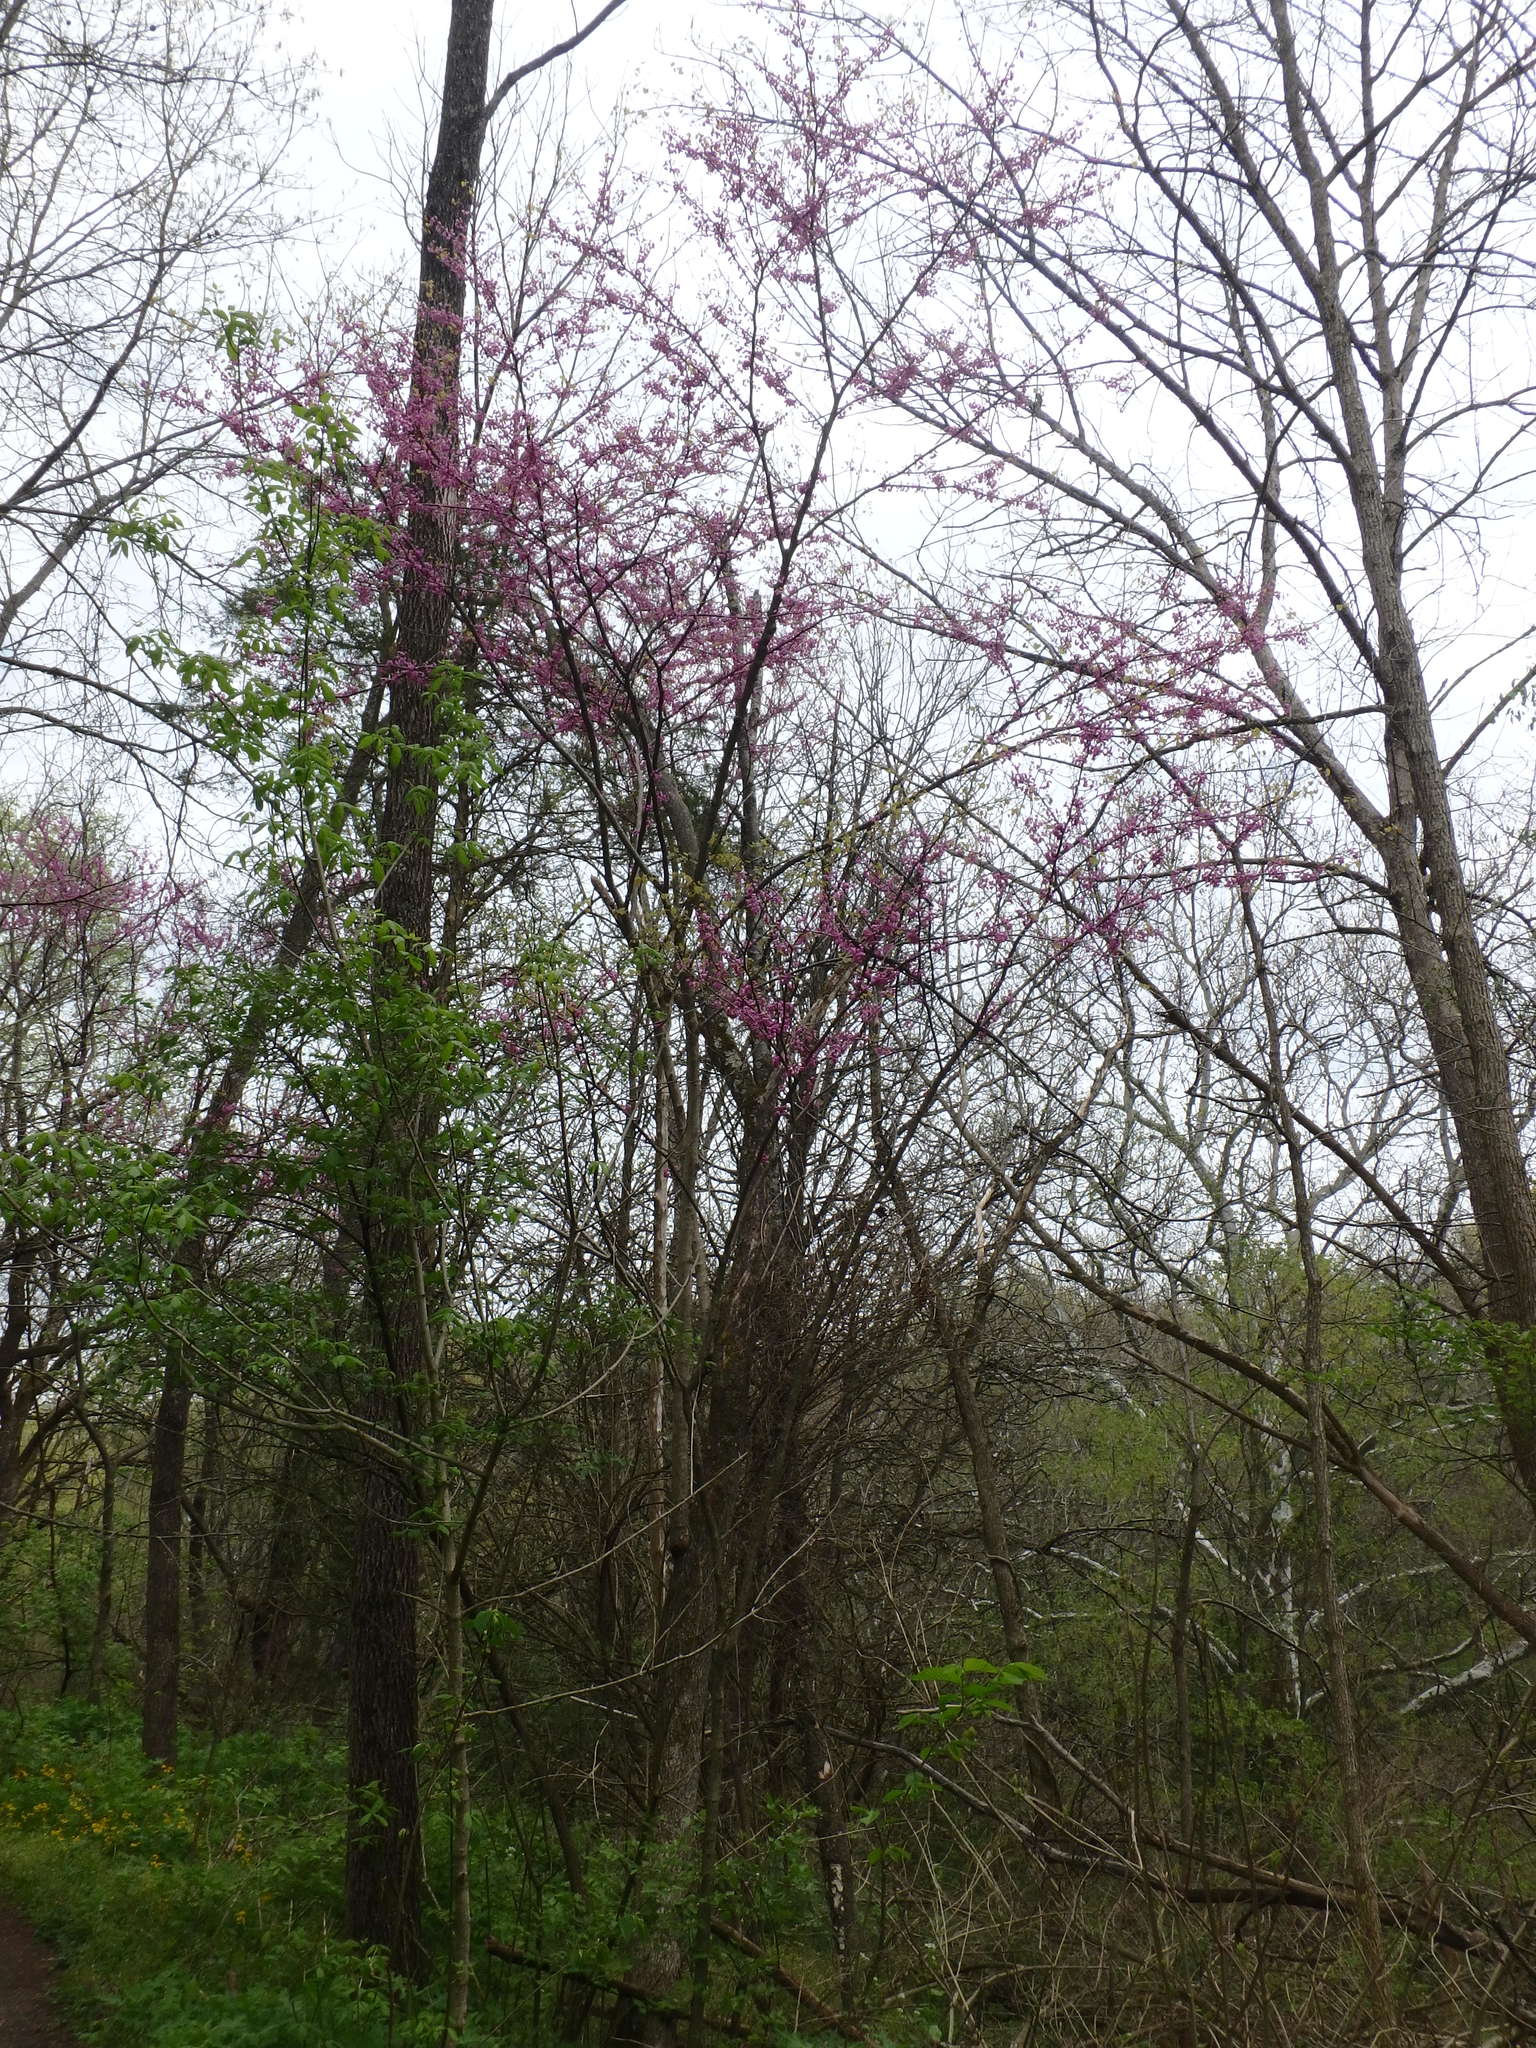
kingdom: Plantae
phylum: Tracheophyta
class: Magnoliopsida
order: Fabales
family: Fabaceae
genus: Cercis
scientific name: Cercis canadensis
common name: Eastern redbud
